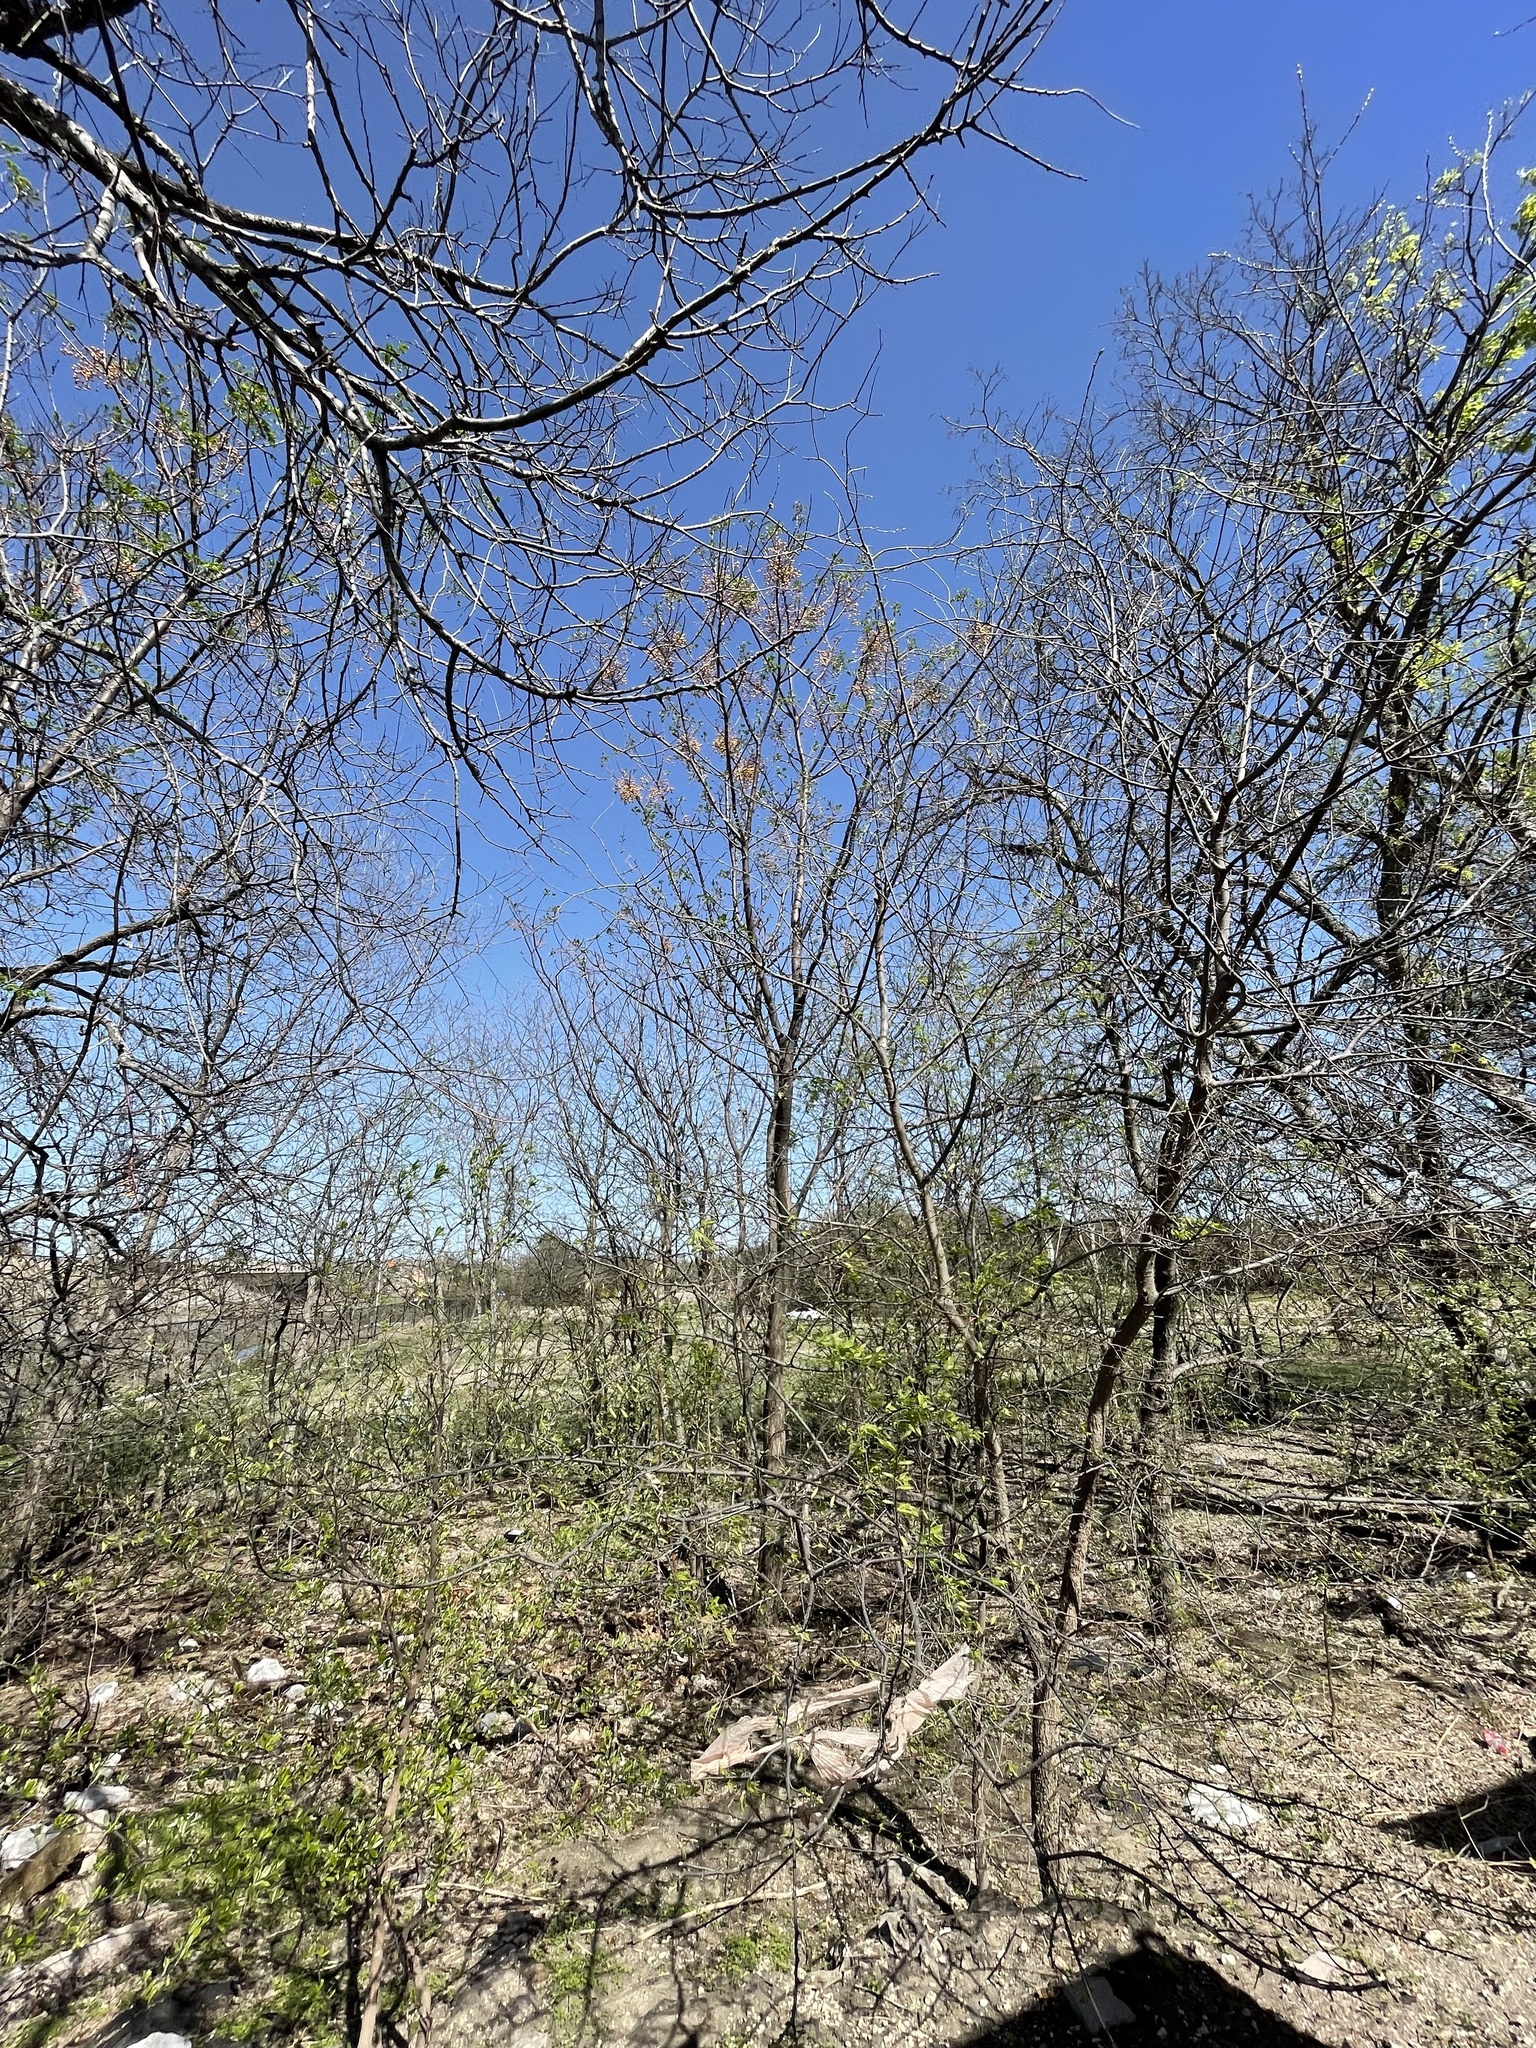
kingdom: Plantae
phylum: Tracheophyta
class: Magnoliopsida
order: Sapindales
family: Meliaceae
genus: Melia
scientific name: Melia azedarach
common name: Chinaberrytree
